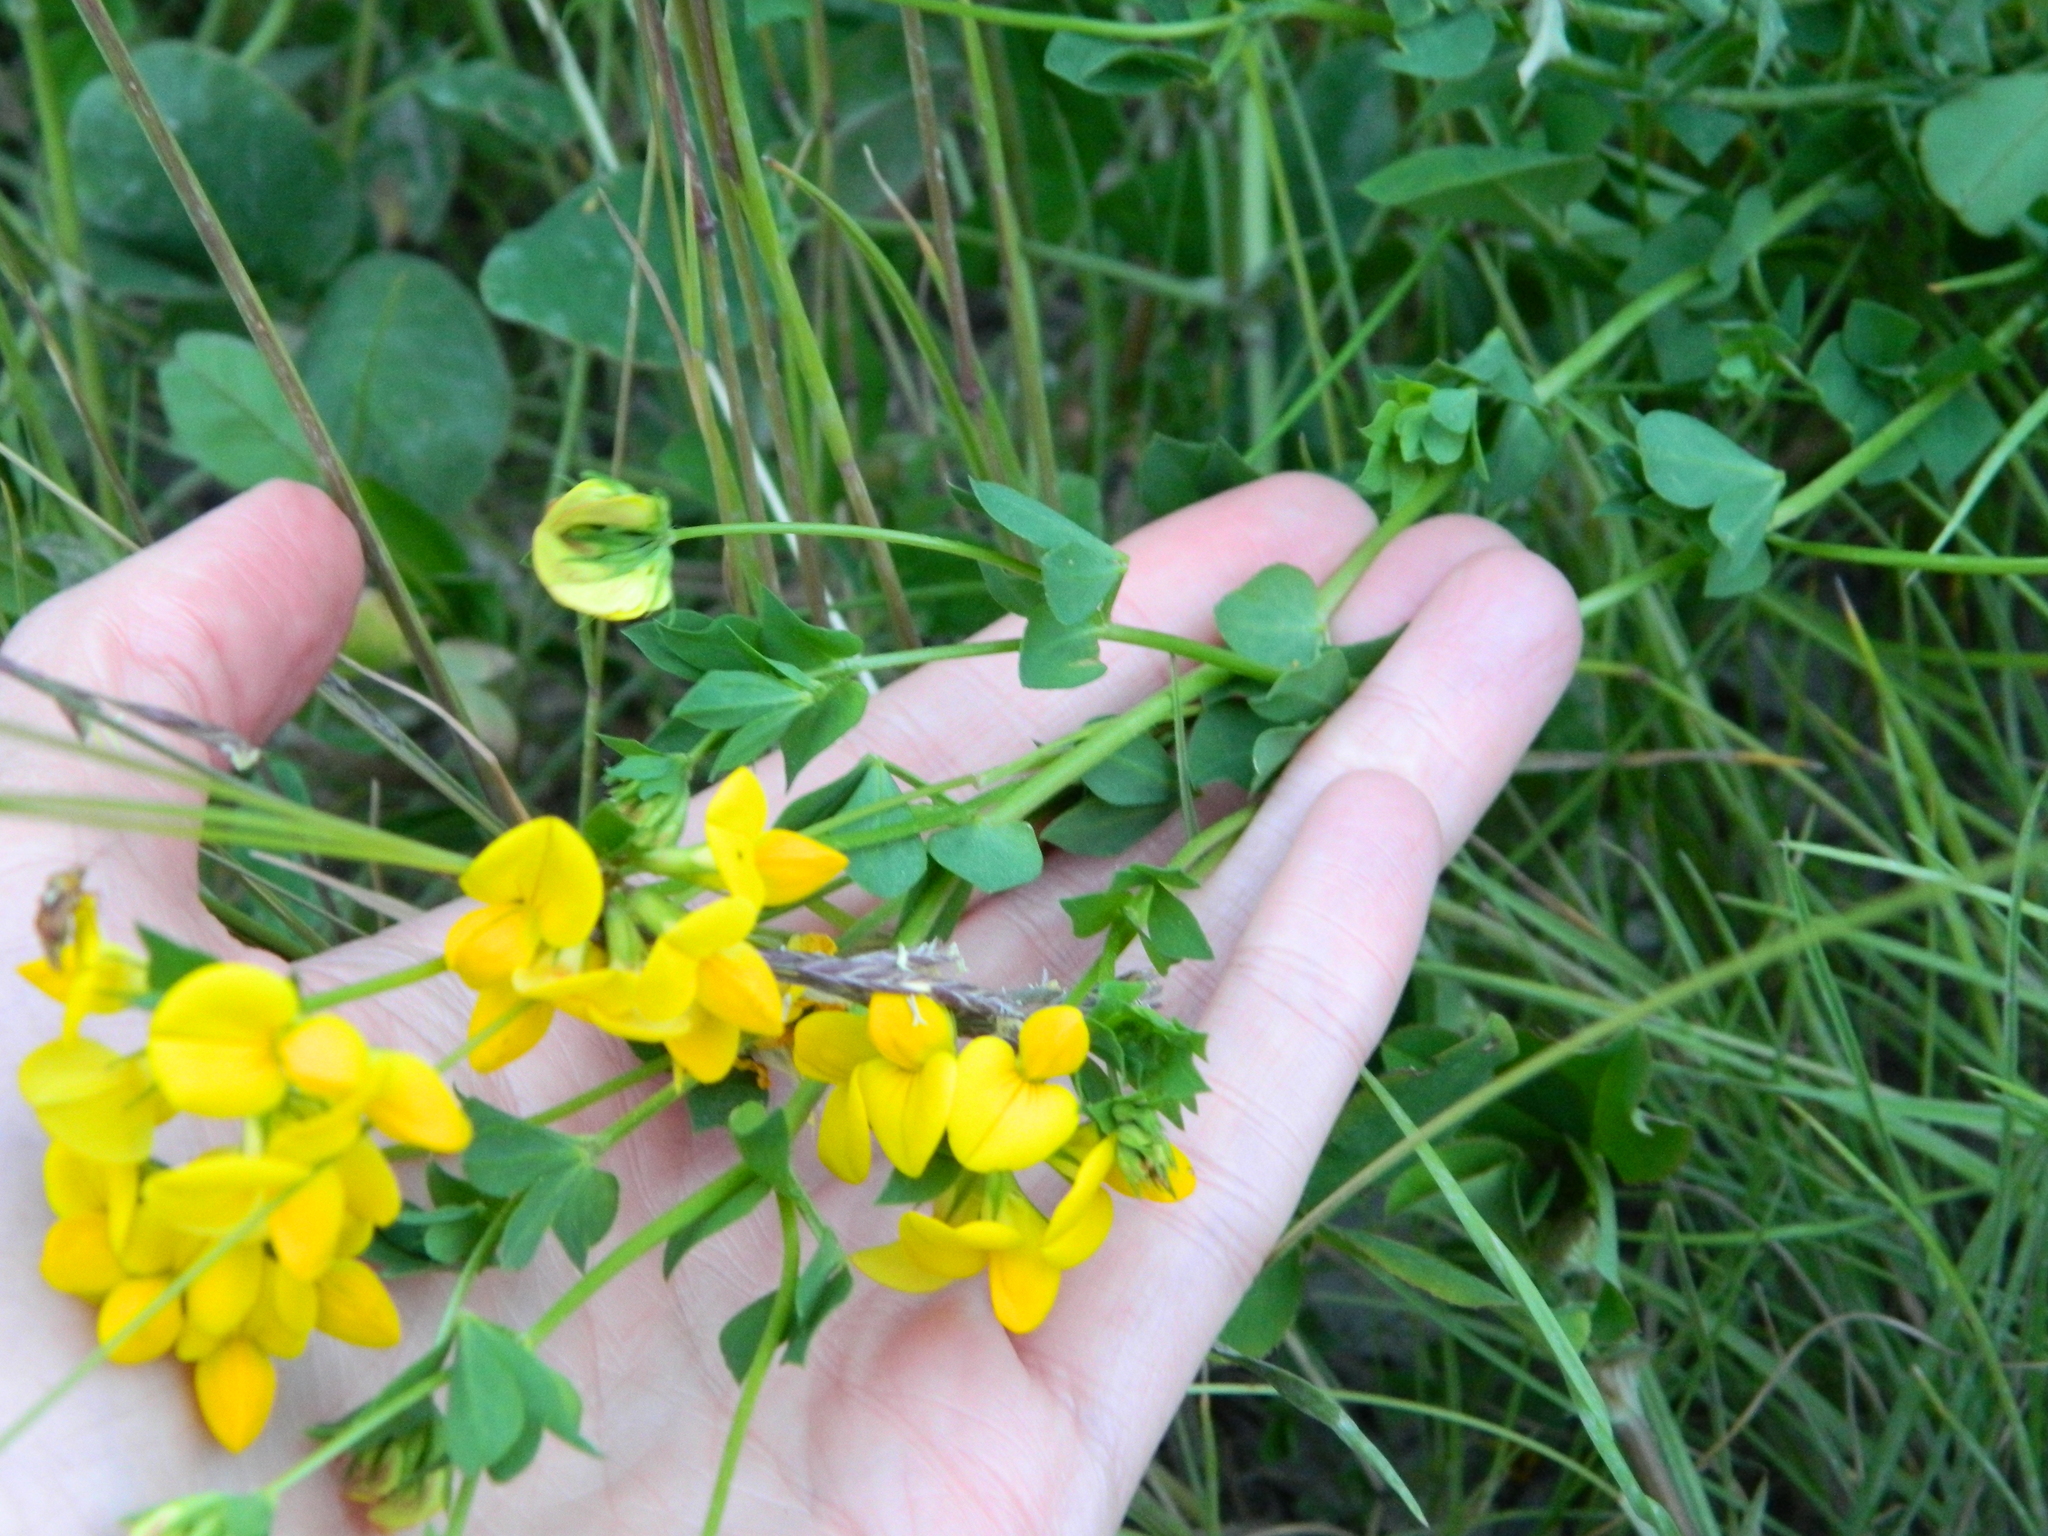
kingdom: Plantae
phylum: Tracheophyta
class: Magnoliopsida
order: Fabales
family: Fabaceae
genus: Lotus
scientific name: Lotus corniculatus
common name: Common bird's-foot-trefoil
